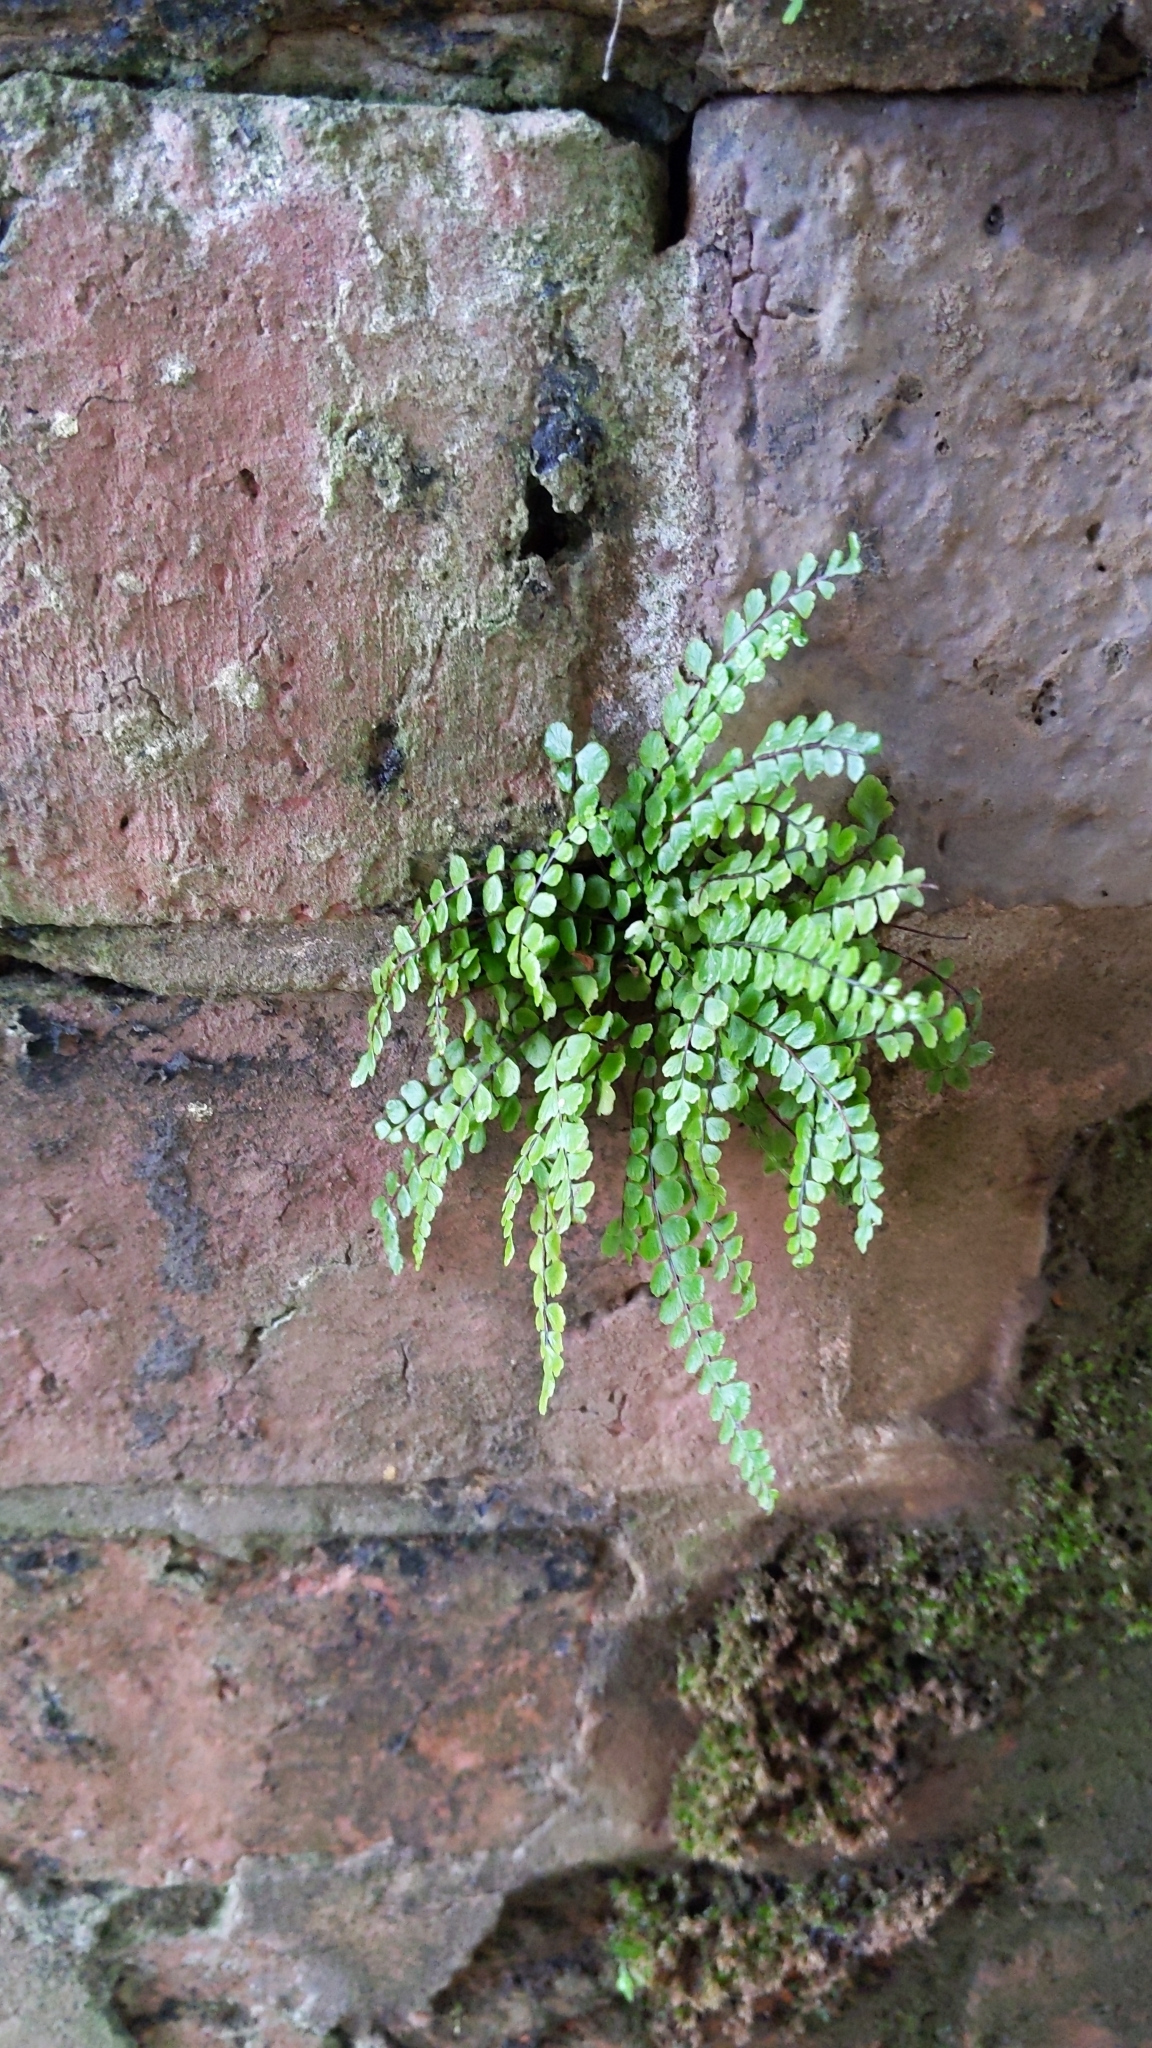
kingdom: Plantae
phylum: Tracheophyta
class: Polypodiopsida
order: Polypodiales
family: Aspleniaceae
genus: Asplenium
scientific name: Asplenium trichomanes
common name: Maidenhair spleenwort
